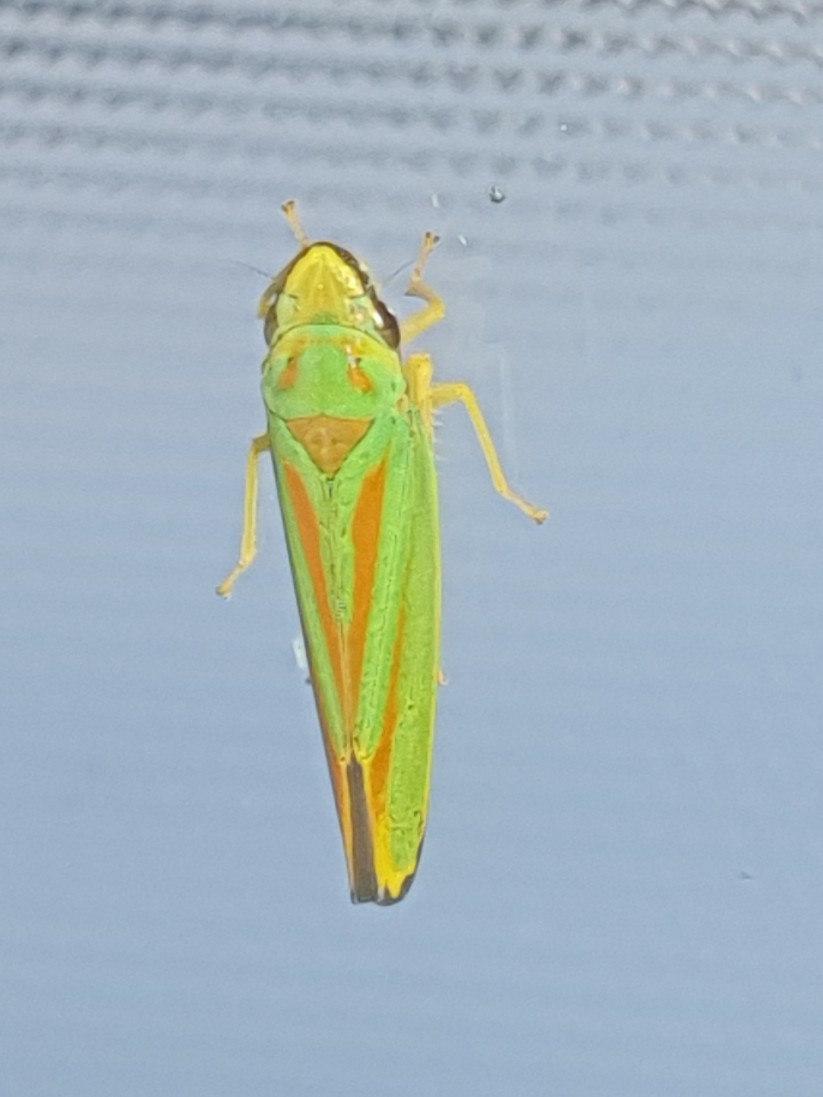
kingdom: Animalia
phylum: Arthropoda
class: Insecta
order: Hemiptera
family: Cicadellidae
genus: Graphocephala
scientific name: Graphocephala fennahi
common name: Rhododendron leafhopper
